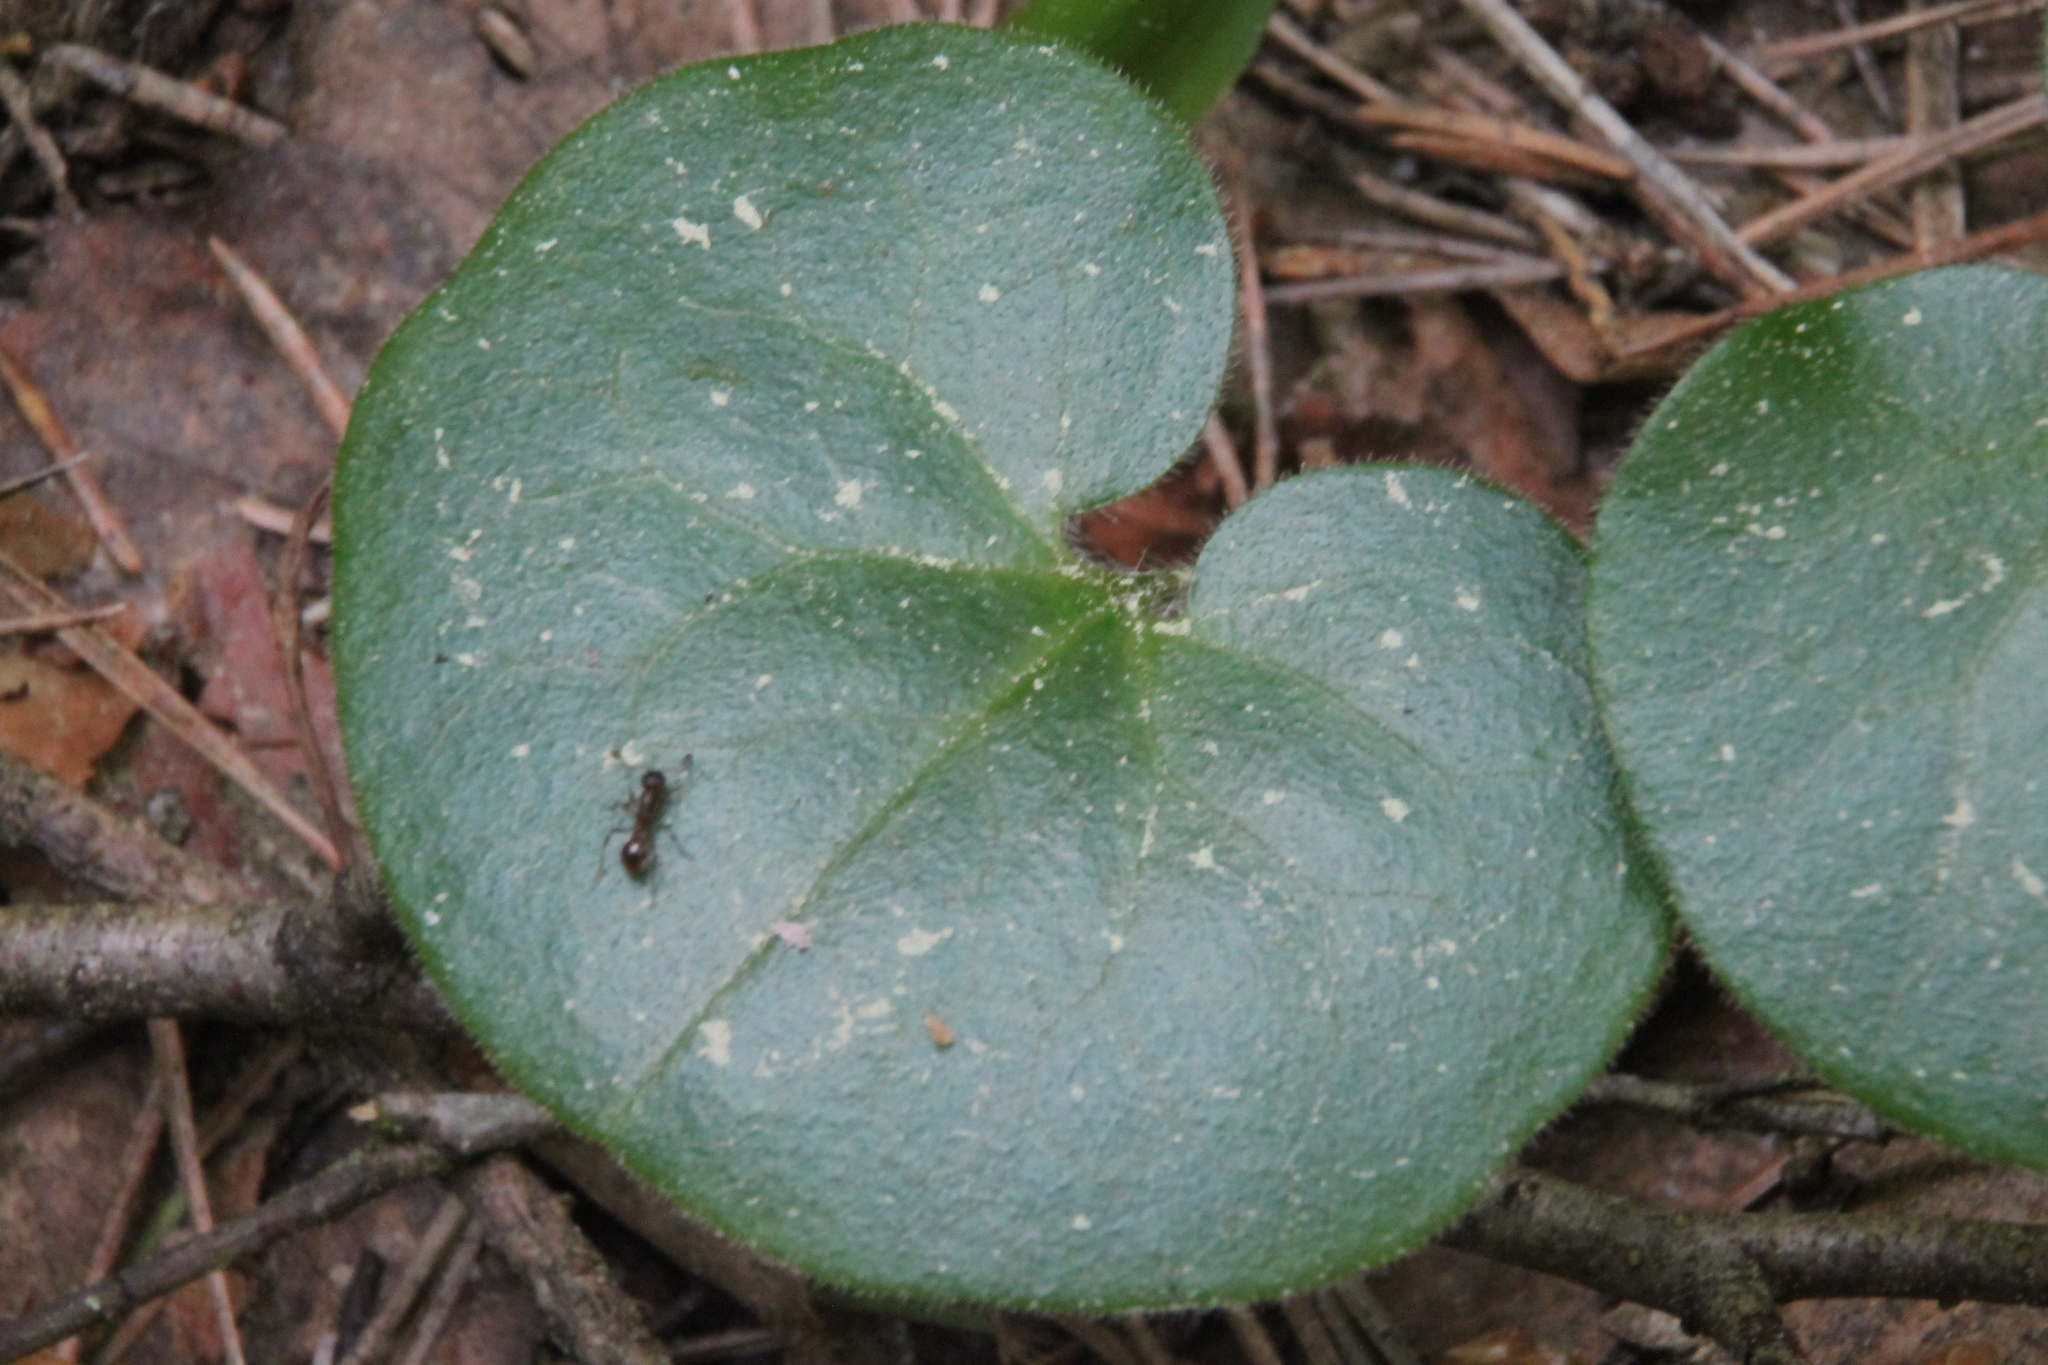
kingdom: Plantae
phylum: Tracheophyta
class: Magnoliopsida
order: Piperales
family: Aristolochiaceae
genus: Asarum
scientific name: Asarum europaeum
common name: Asarabacca
